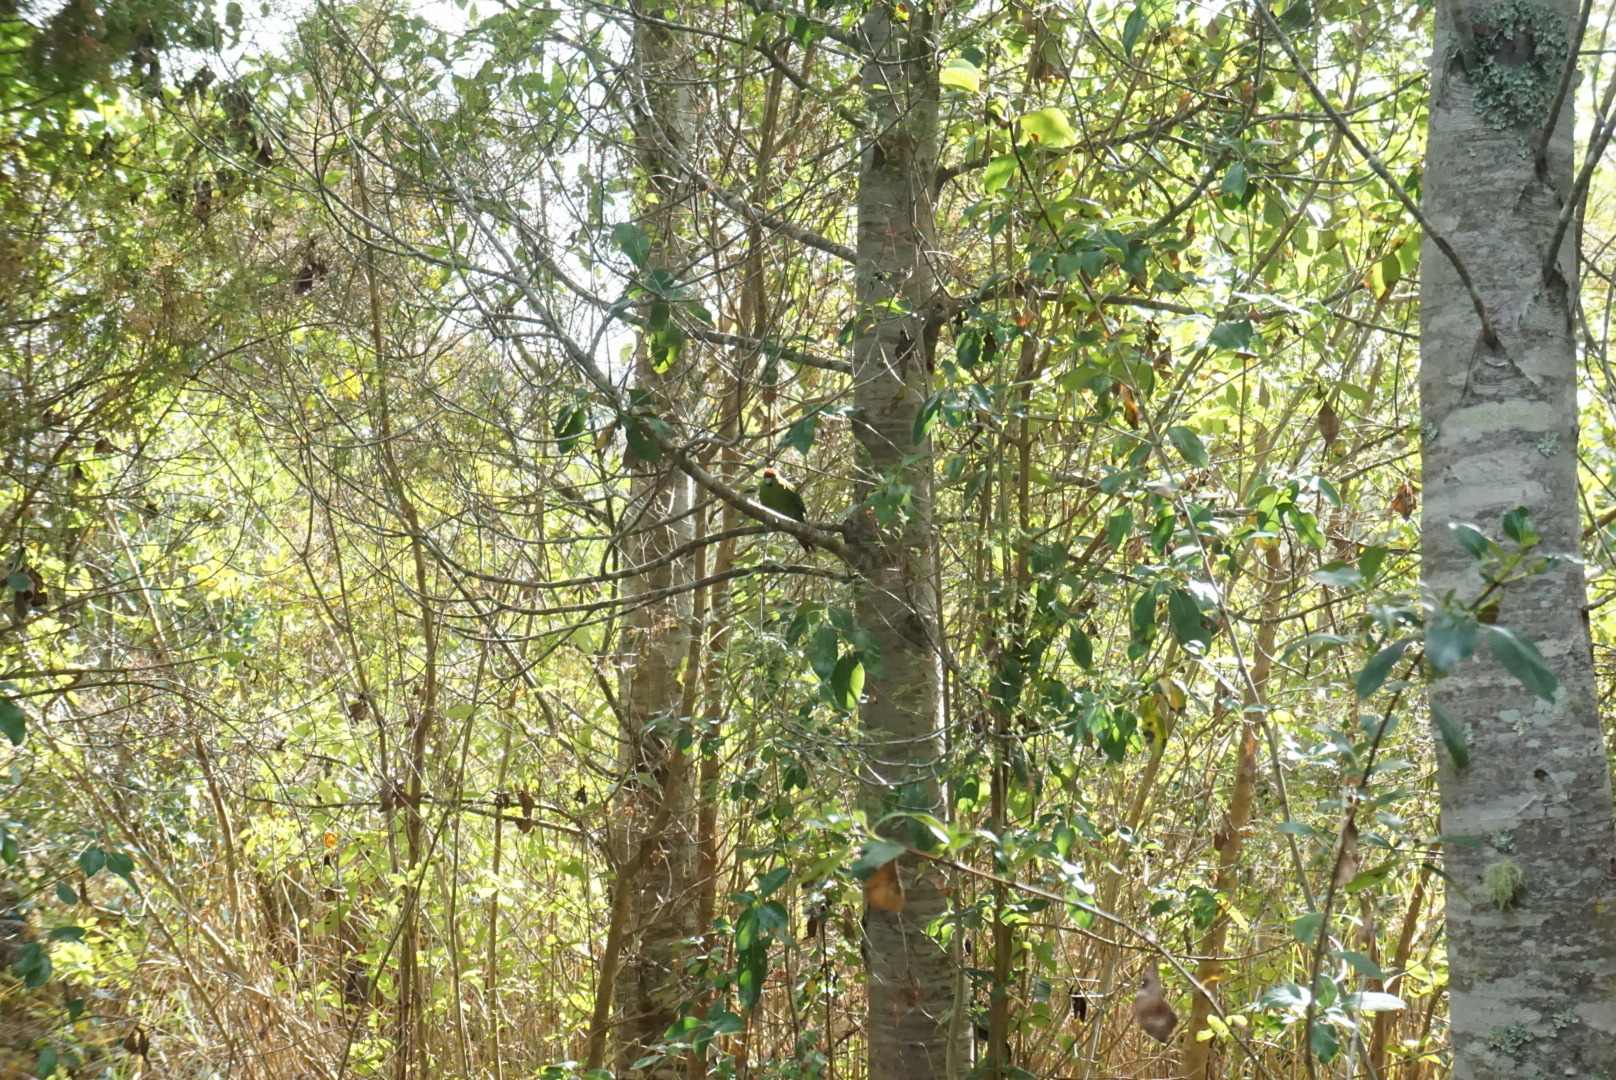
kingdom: Animalia
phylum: Chordata
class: Aves
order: Psittaciformes
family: Psittacidae
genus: Cyanoramphus
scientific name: Cyanoramphus novaezelandiae
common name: Red-fronted parakeet
